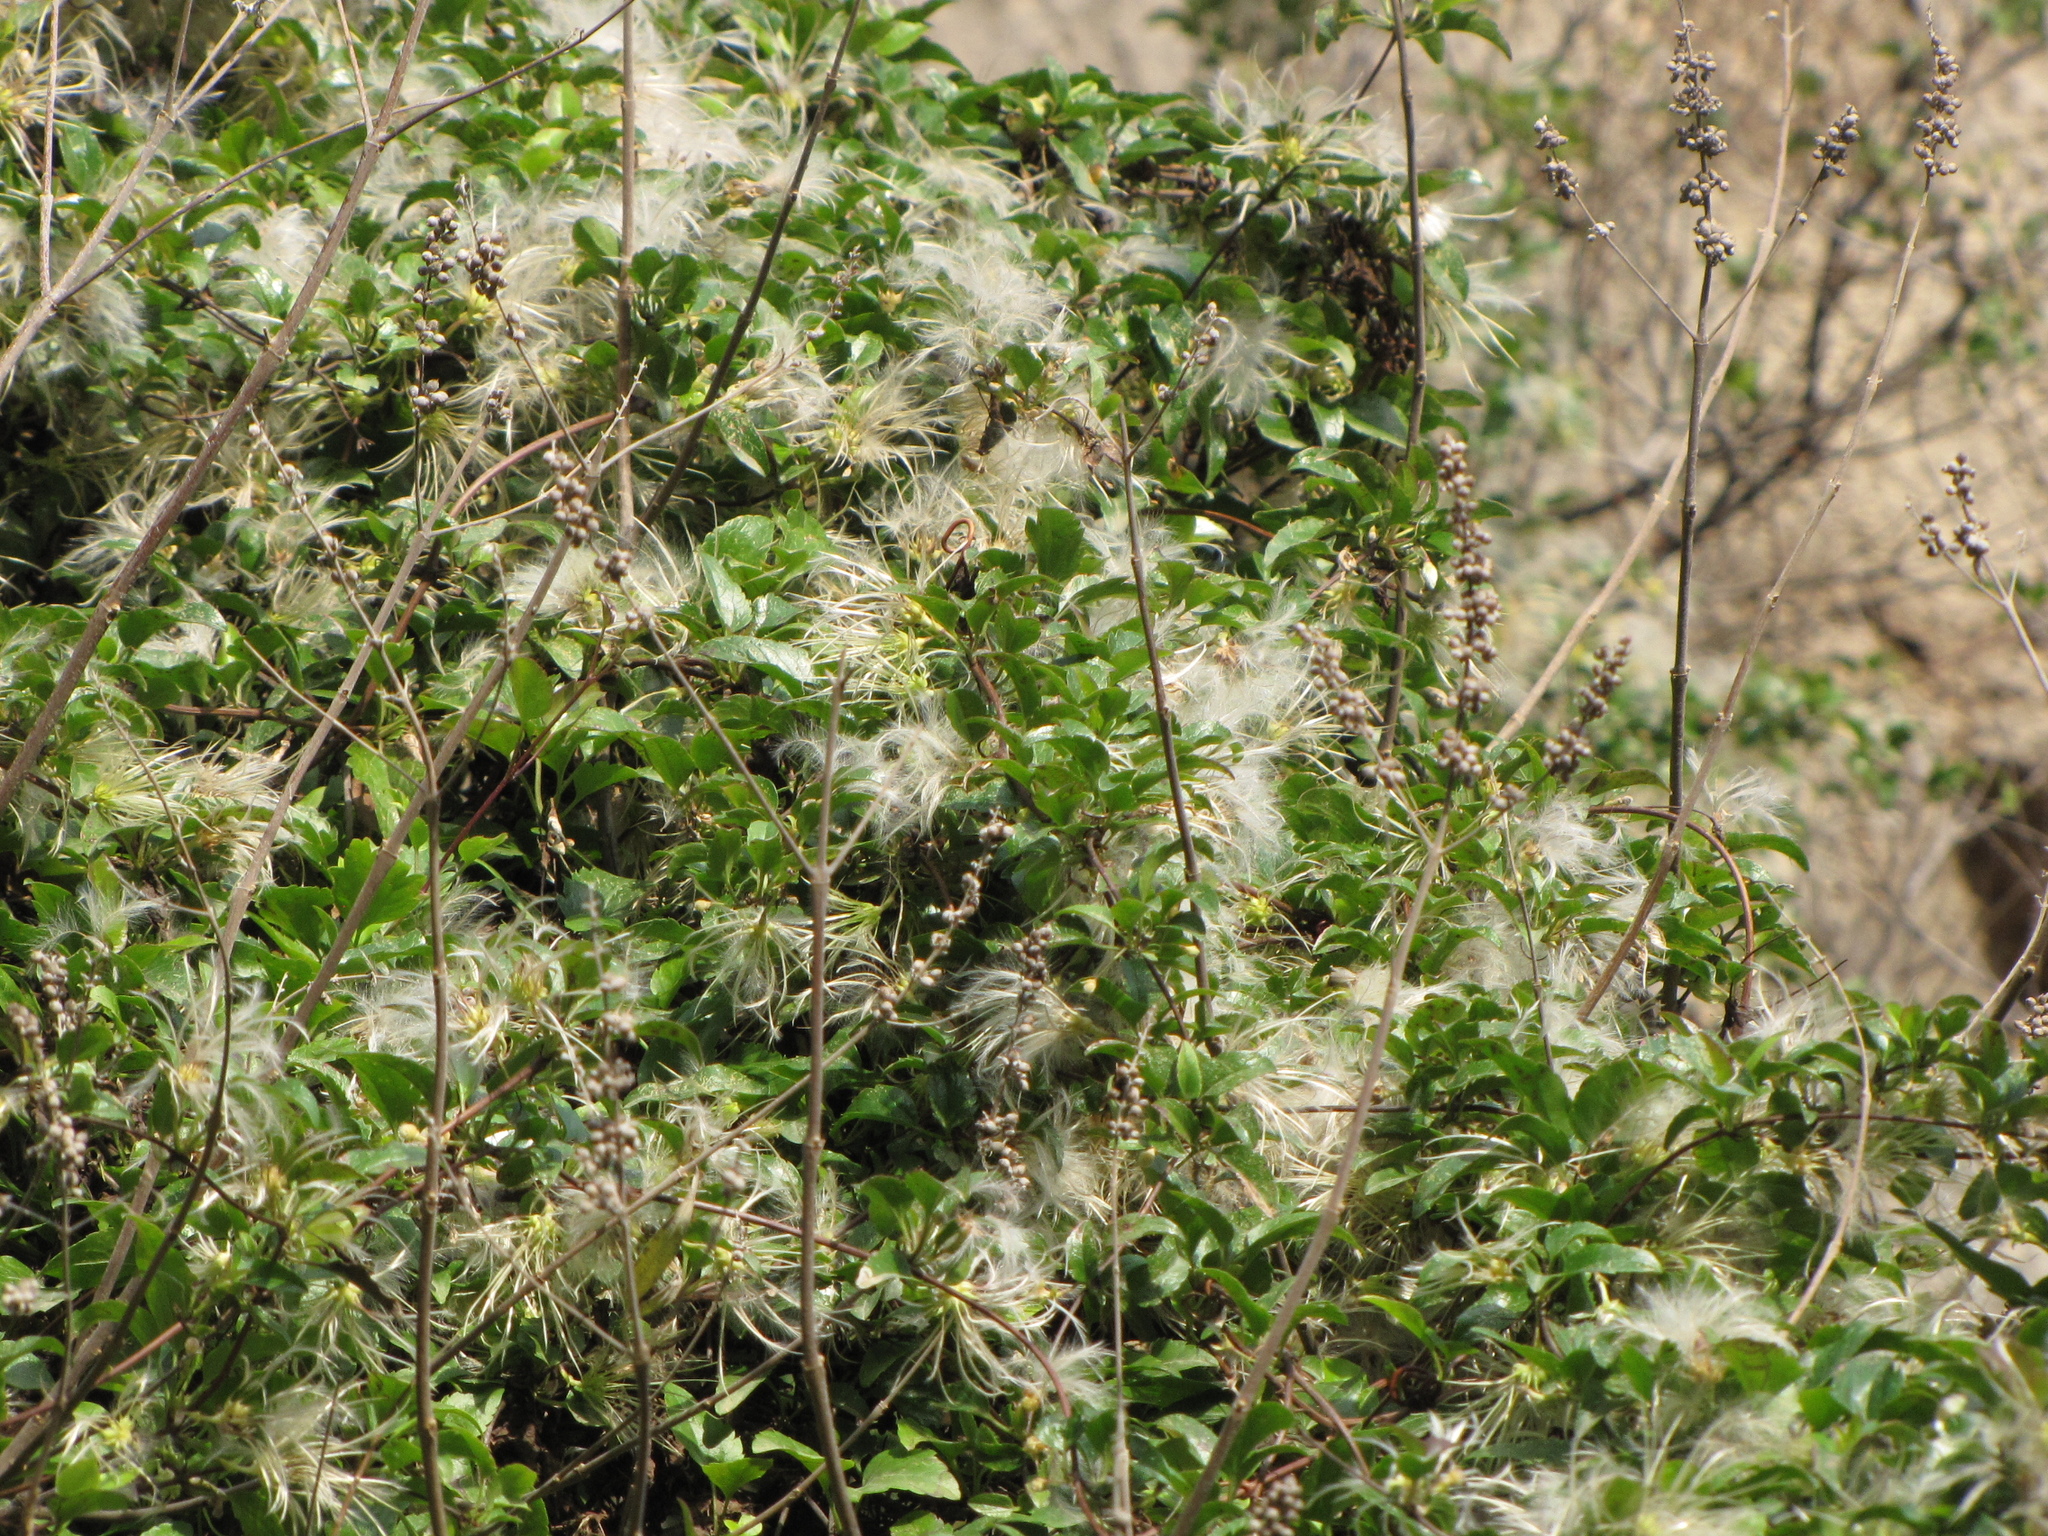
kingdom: Plantae
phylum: Tracheophyta
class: Magnoliopsida
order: Ranunculales
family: Ranunculaceae
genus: Clematis
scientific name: Clematis cirrhosa
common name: Early virgin's-bower
